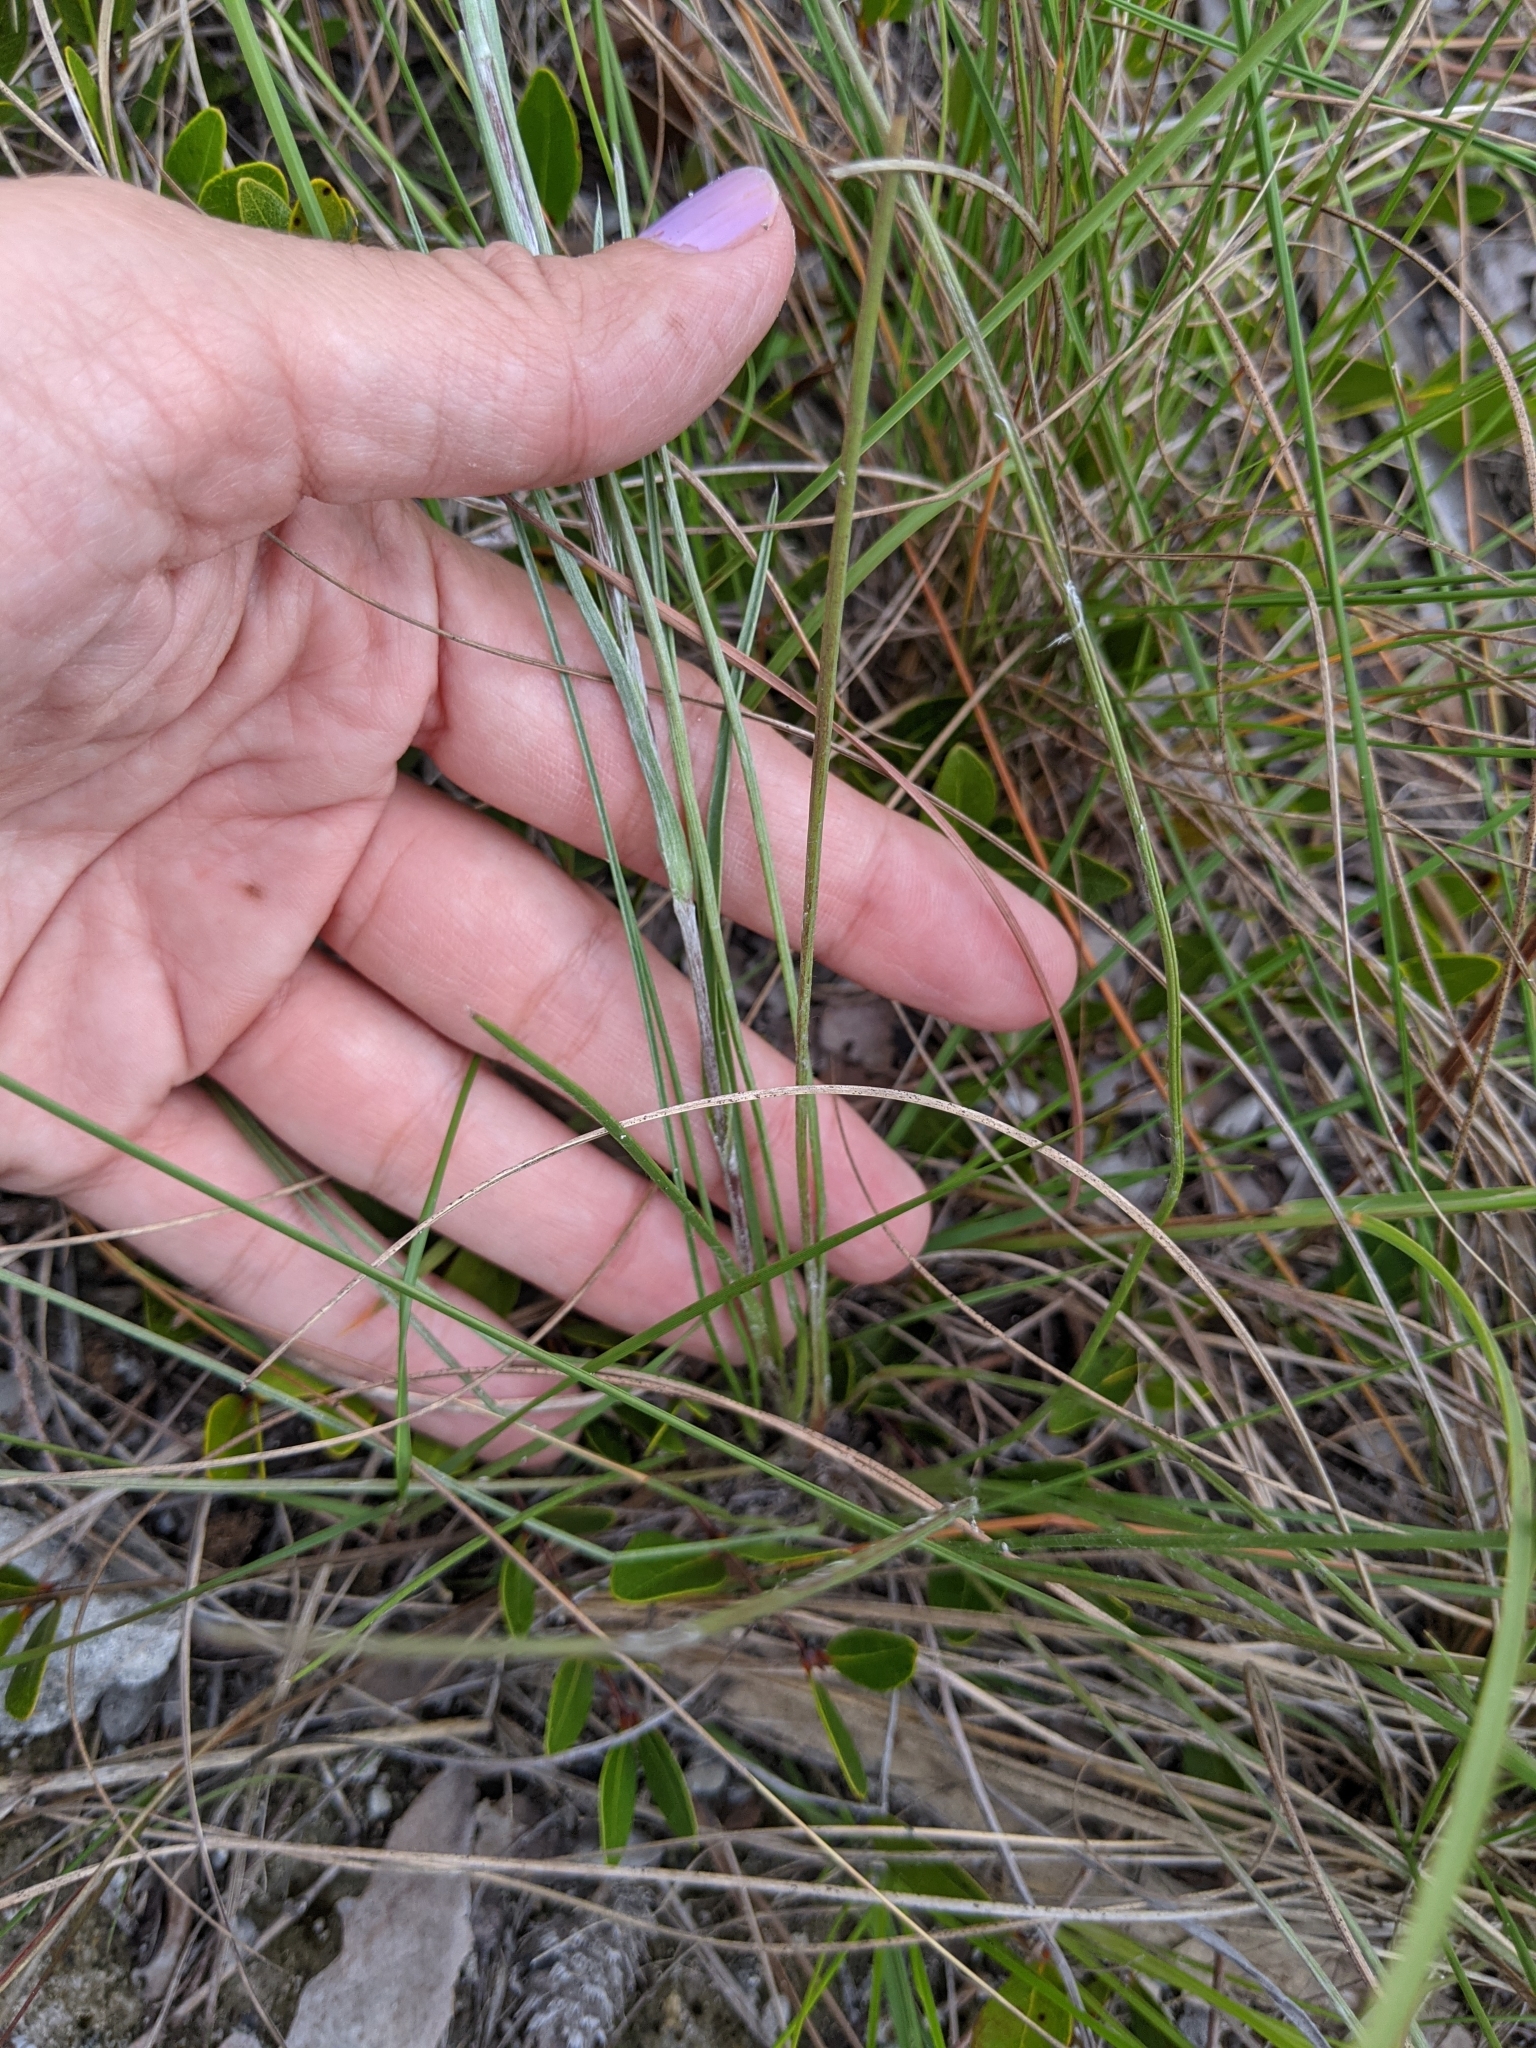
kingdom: Plantae
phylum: Tracheophyta
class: Magnoliopsida
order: Asterales
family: Asteraceae
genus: Pityopsis
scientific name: Pityopsis tracyi
